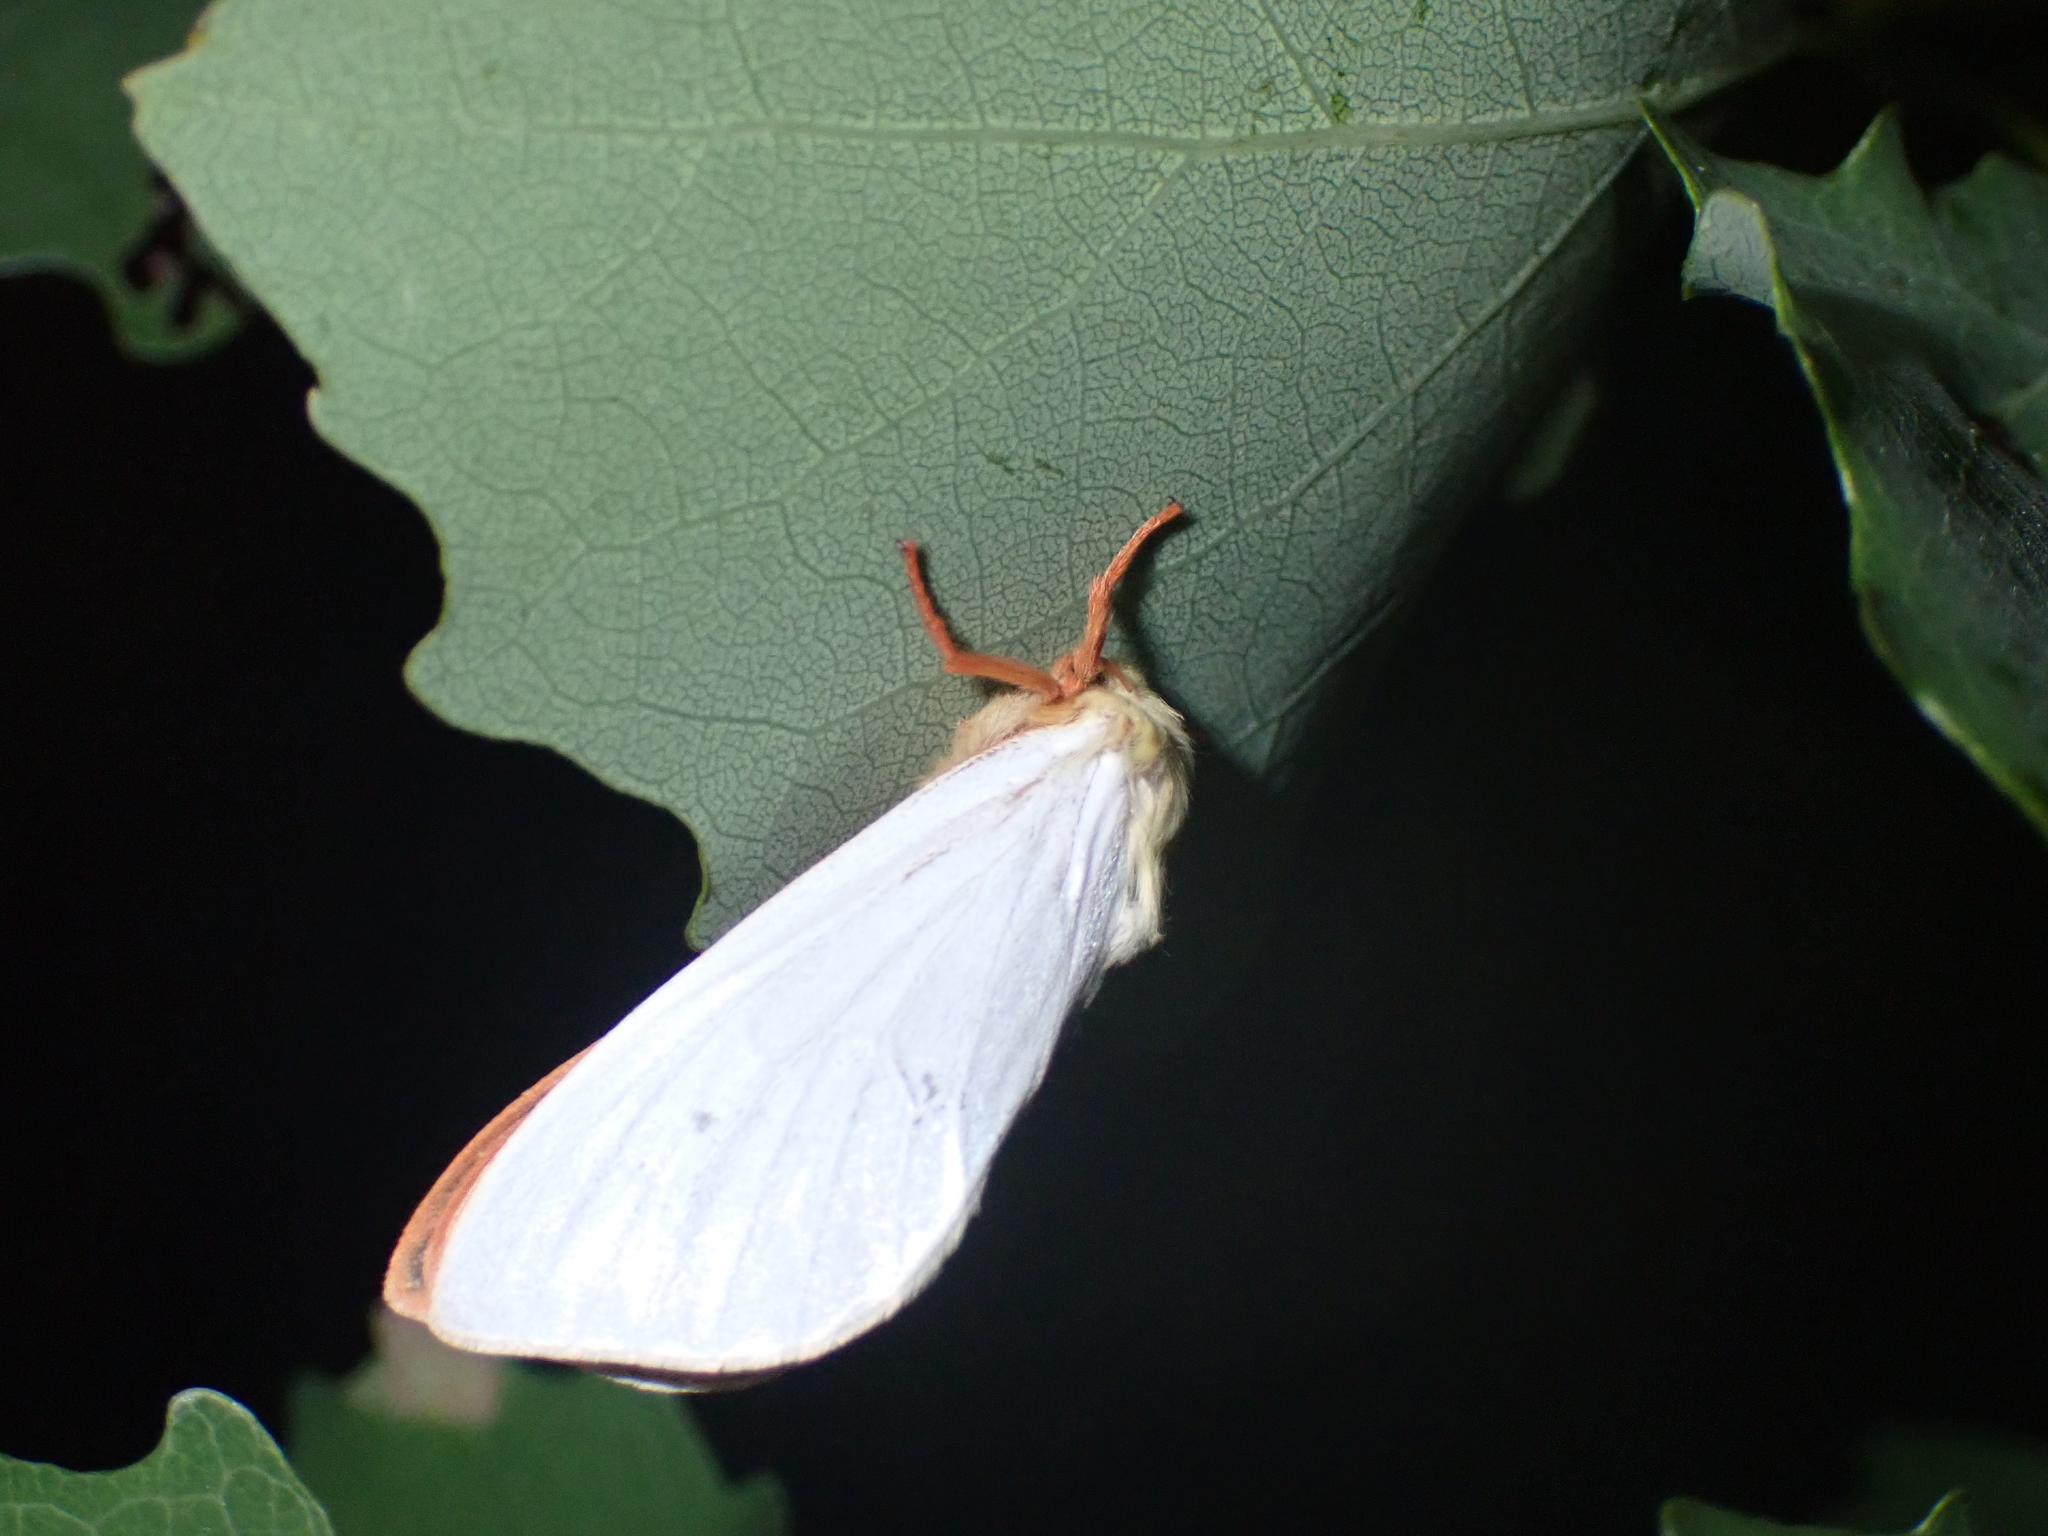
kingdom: Animalia
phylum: Arthropoda
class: Insecta
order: Lepidoptera
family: Hepialidae
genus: Hepialus
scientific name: Hepialus humuli
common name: Ghost moth
